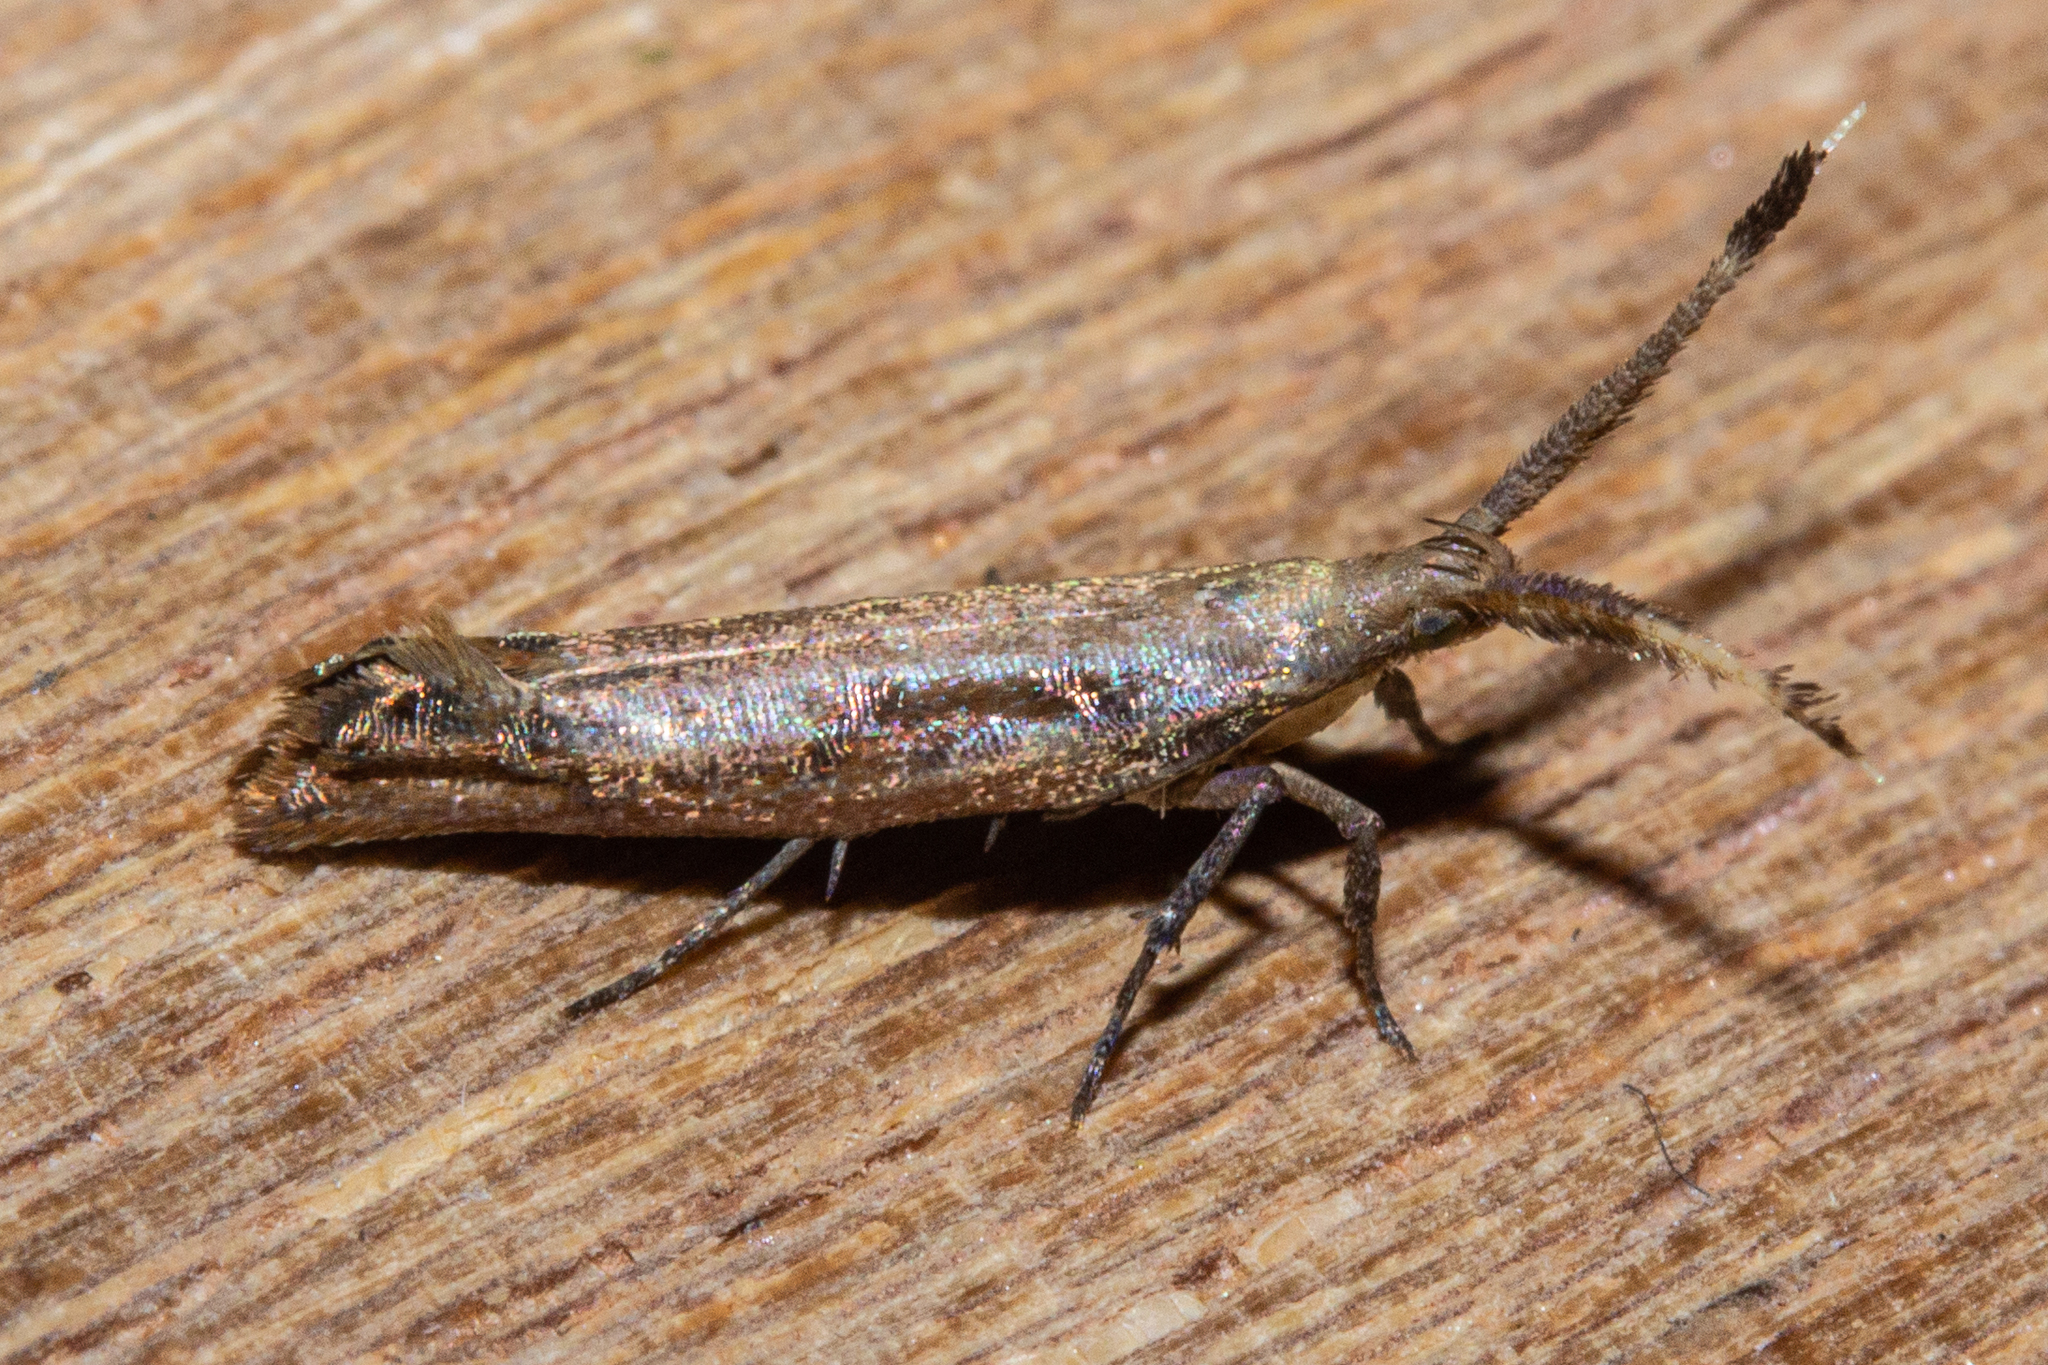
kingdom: Animalia
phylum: Arthropoda
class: Insecta
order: Lepidoptera
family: Plutellidae
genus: Protosynaema
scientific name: Protosynaema steropucha
